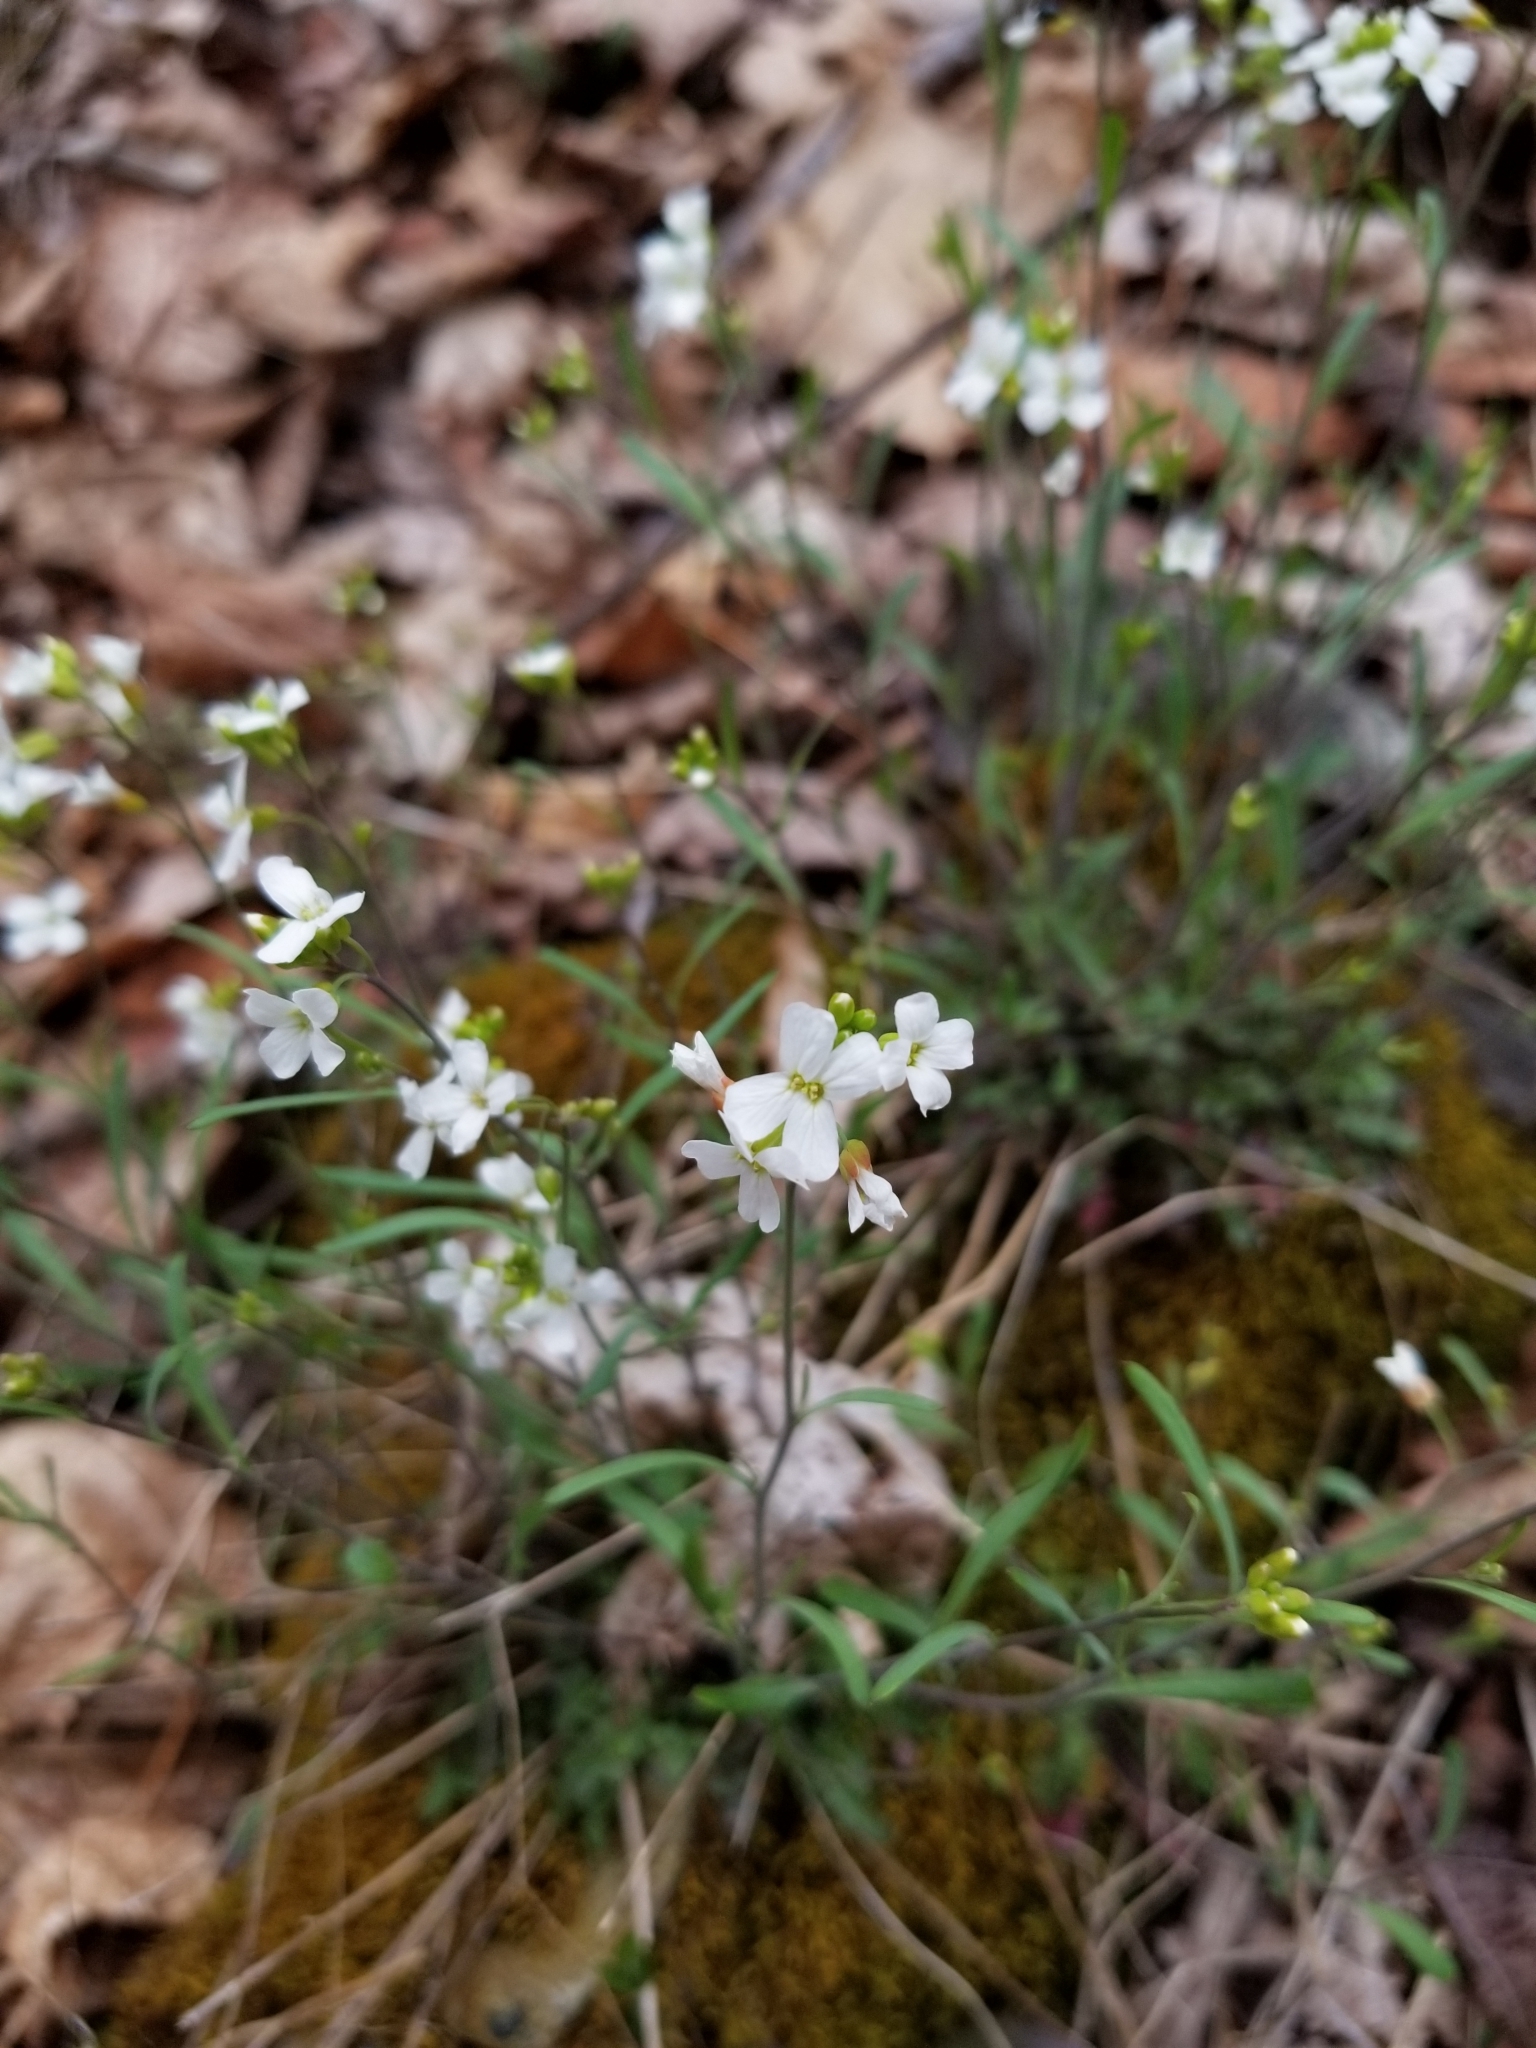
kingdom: Plantae
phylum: Tracheophyta
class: Magnoliopsida
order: Brassicales
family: Brassicaceae
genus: Arabidopsis
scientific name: Arabidopsis lyrata
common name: Lyrate rockcress
